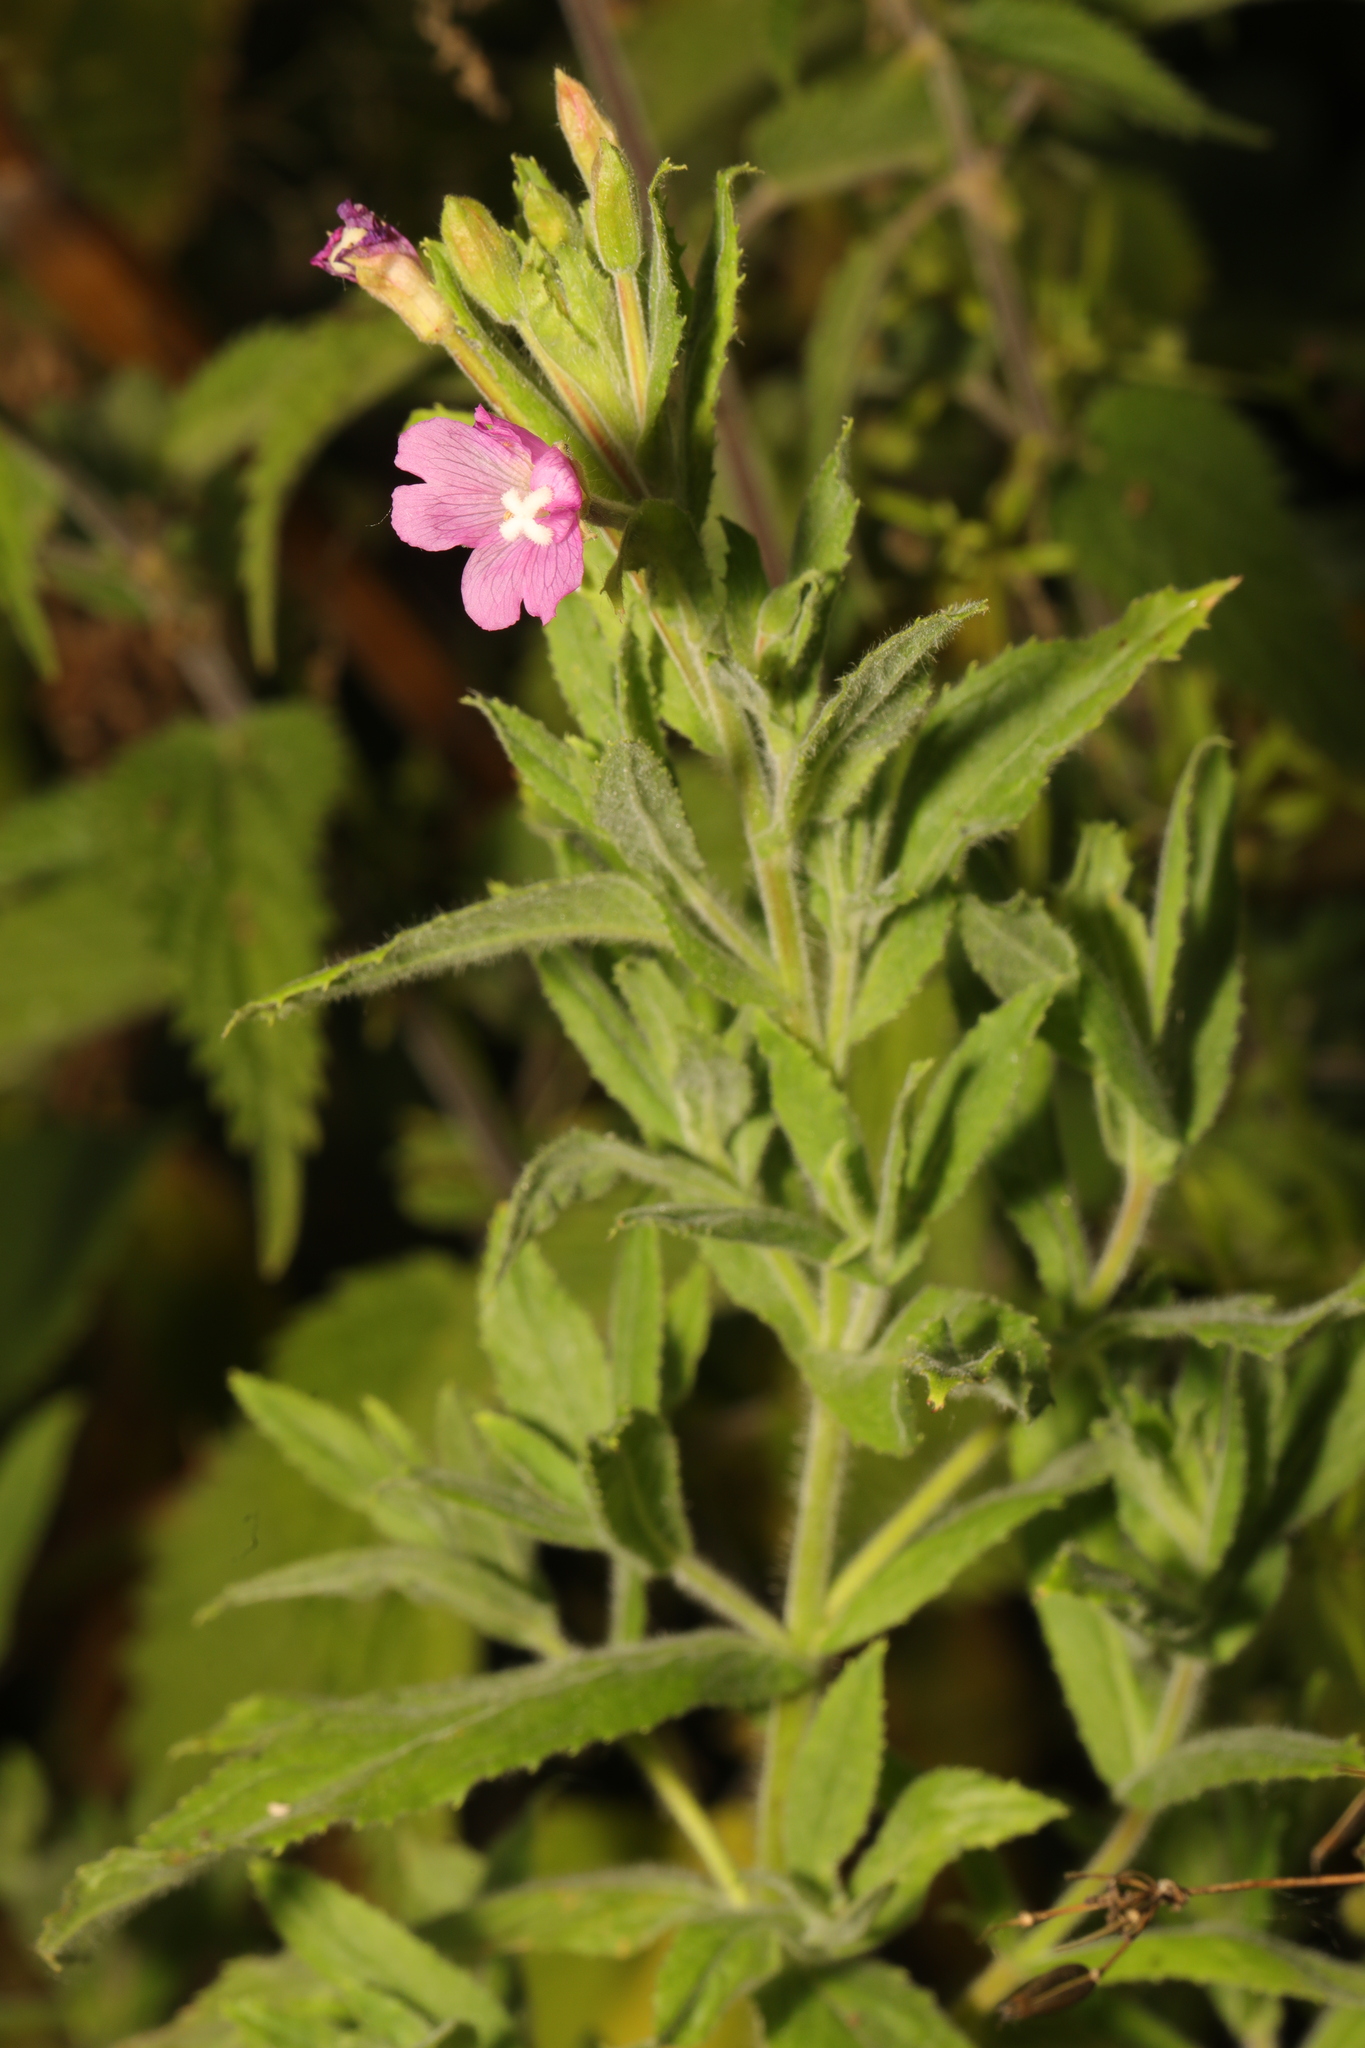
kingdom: Plantae
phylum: Tracheophyta
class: Magnoliopsida
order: Myrtales
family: Onagraceae
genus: Epilobium
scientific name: Epilobium hirsutum
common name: Great willowherb
